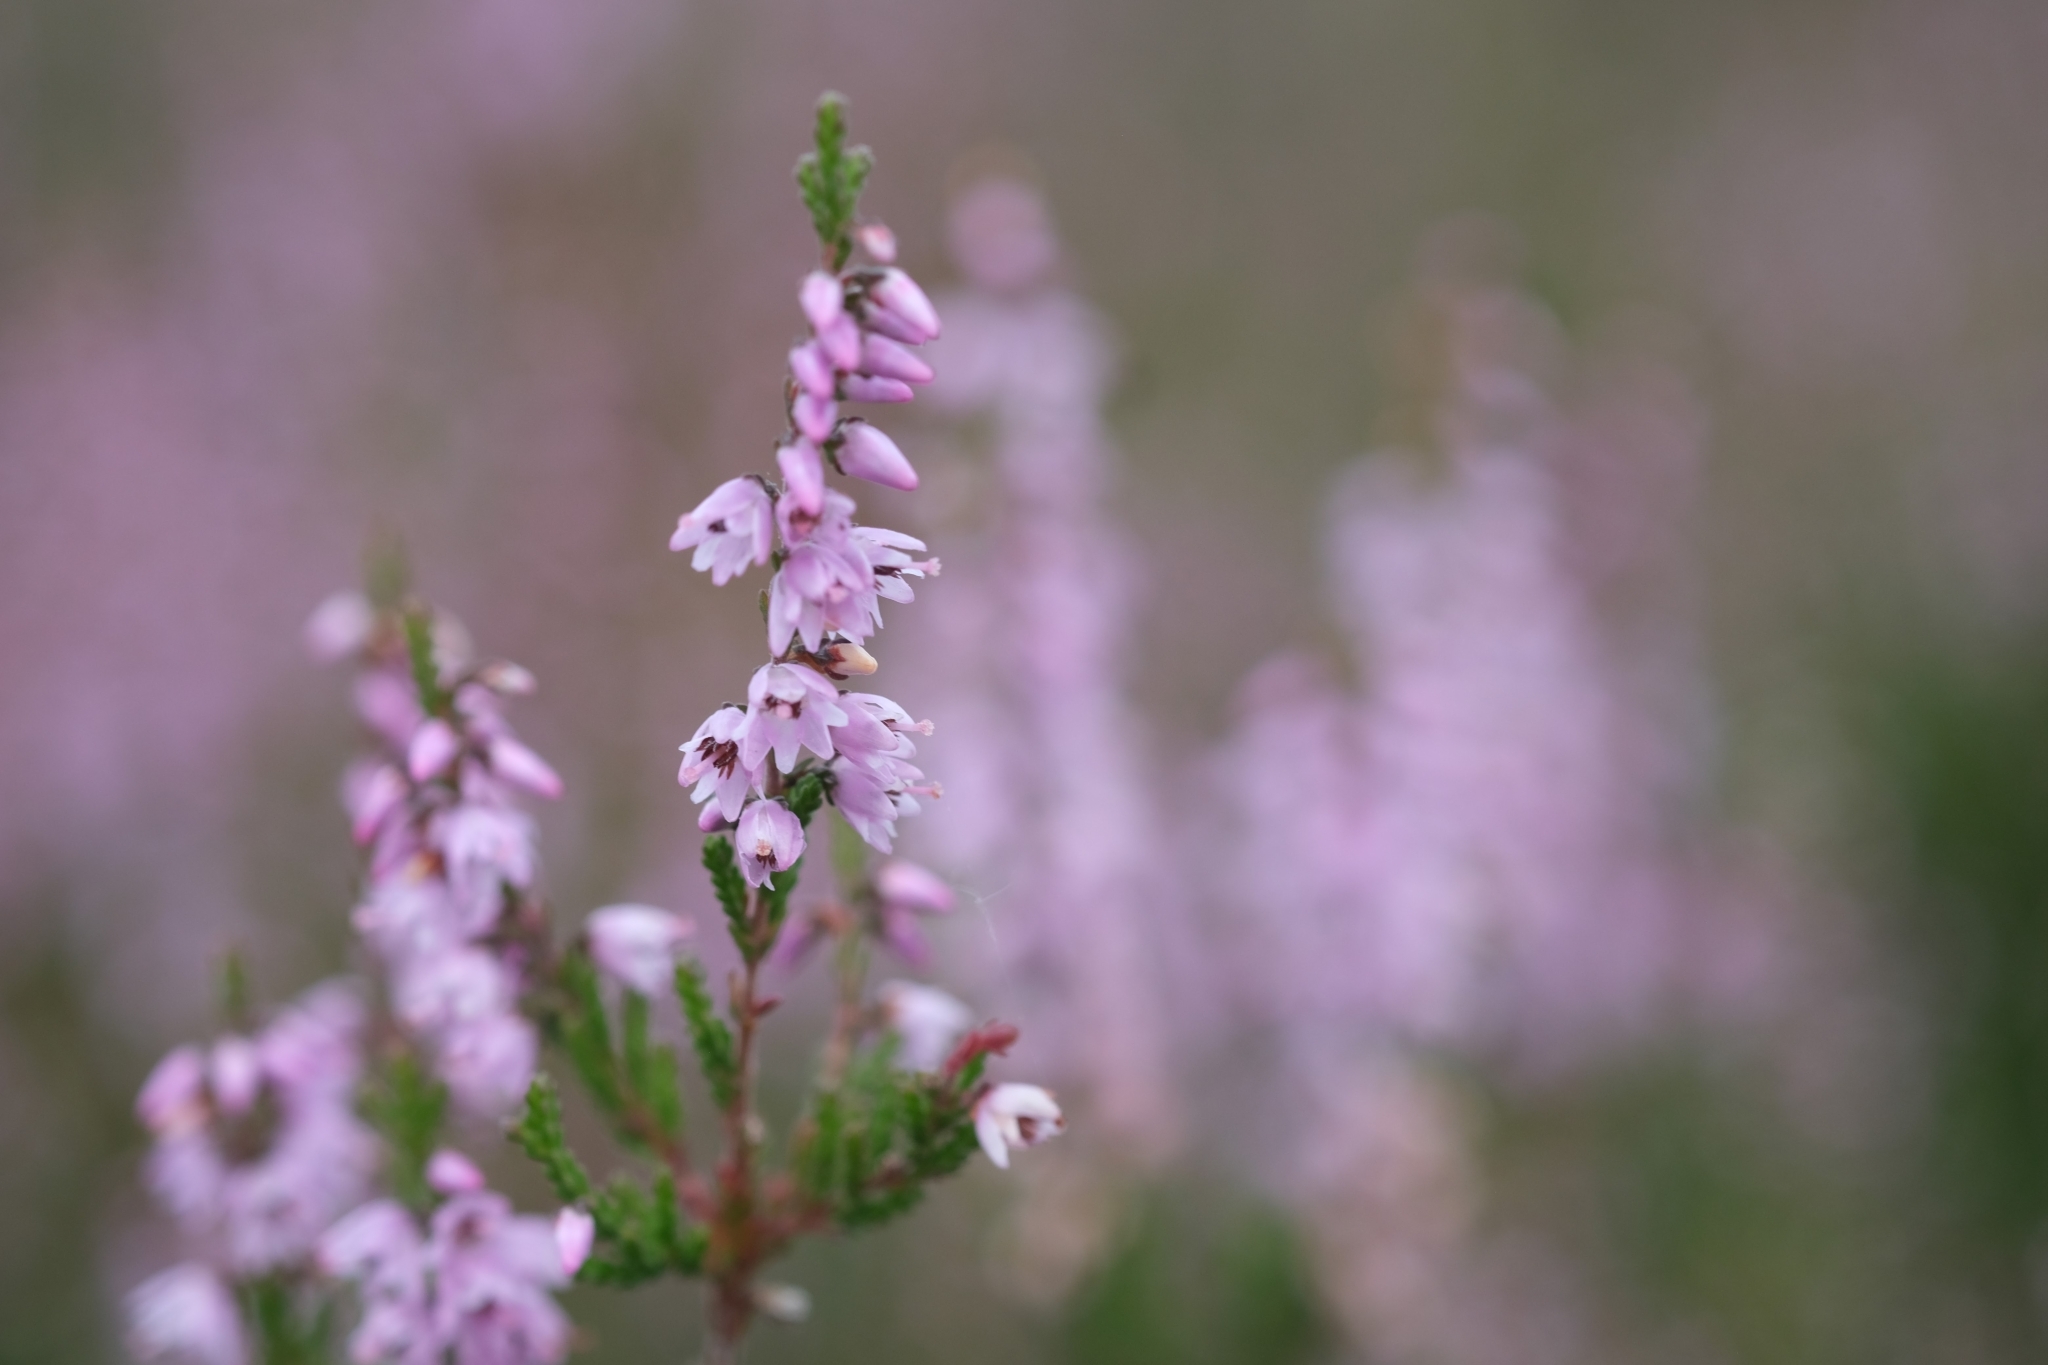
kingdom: Plantae
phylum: Tracheophyta
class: Magnoliopsida
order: Ericales
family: Ericaceae
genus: Calluna
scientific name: Calluna vulgaris
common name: Heather
